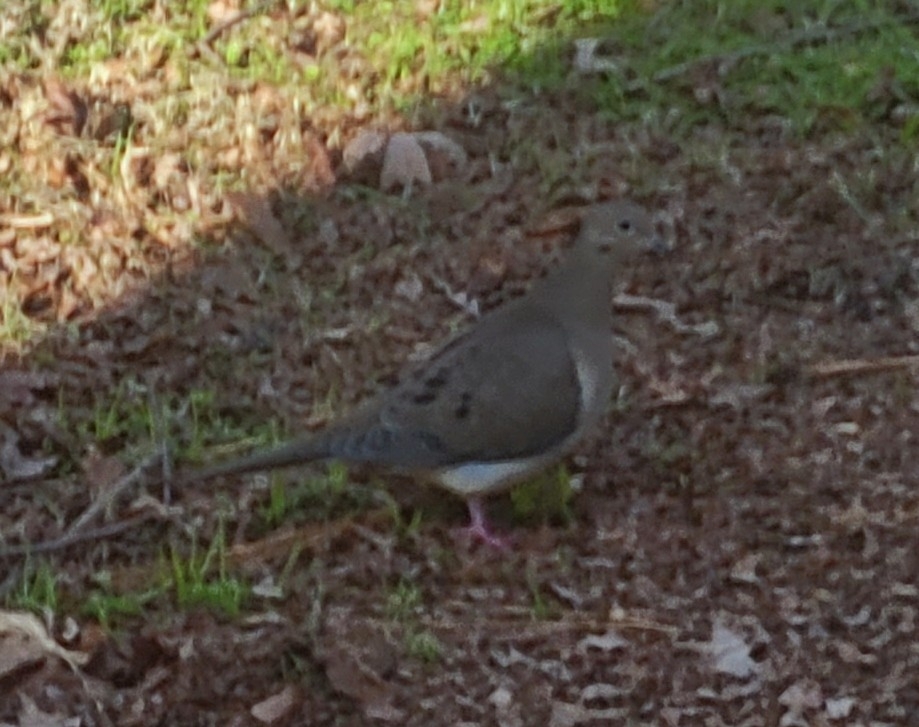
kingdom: Animalia
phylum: Chordata
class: Aves
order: Columbiformes
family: Columbidae
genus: Zenaida
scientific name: Zenaida macroura
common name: Mourning dove
